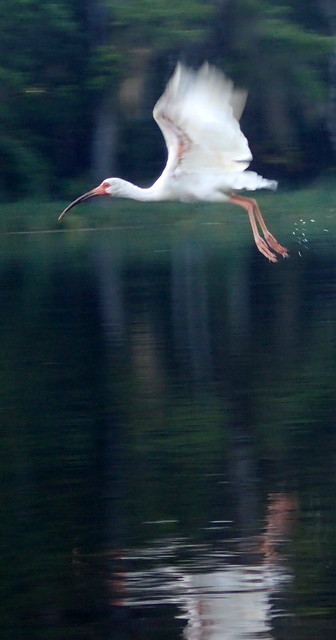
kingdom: Animalia
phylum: Chordata
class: Aves
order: Pelecaniformes
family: Threskiornithidae
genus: Eudocimus
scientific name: Eudocimus albus
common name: White ibis
